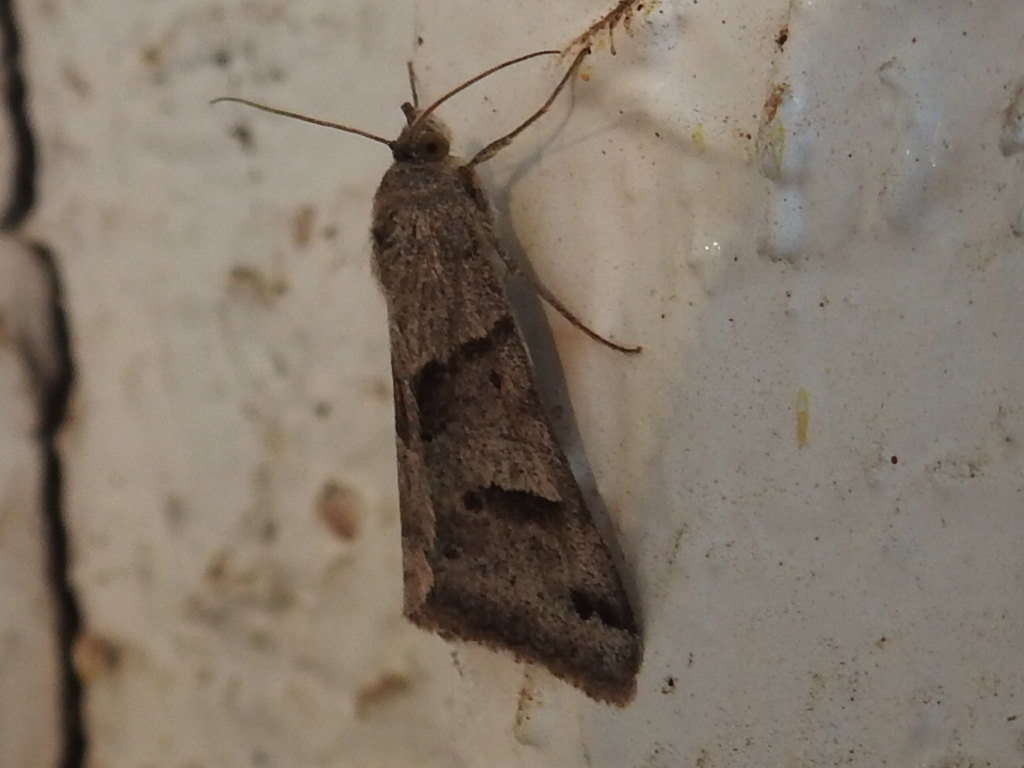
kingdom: Animalia
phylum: Arthropoda
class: Insecta
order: Lepidoptera
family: Erebidae
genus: Caenurgina
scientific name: Caenurgina erechtea
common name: Forage looper moth
